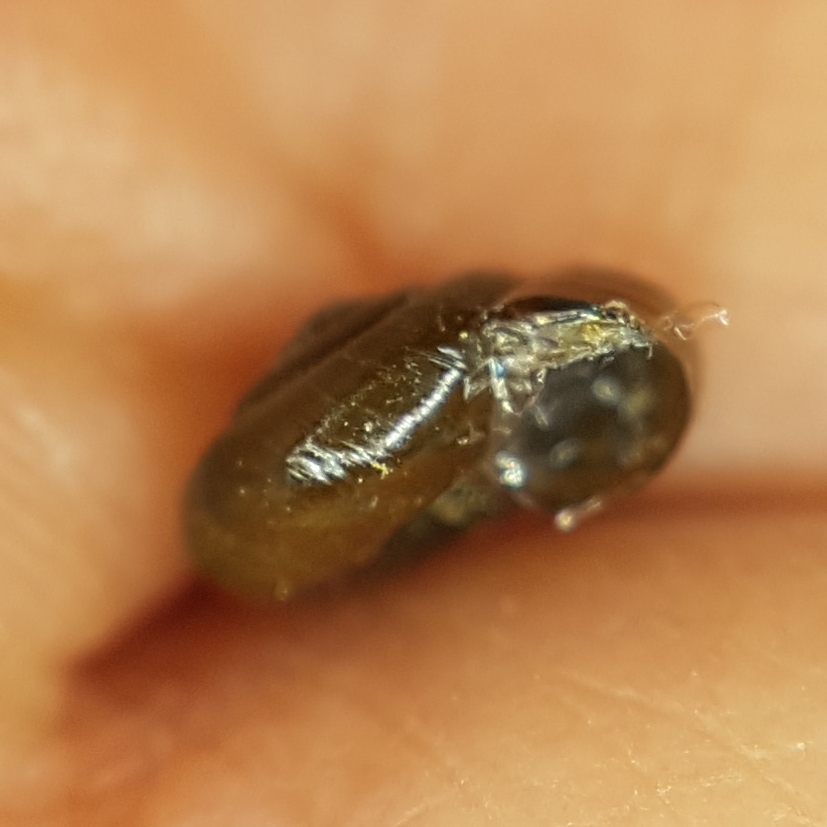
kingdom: Animalia
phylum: Mollusca
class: Gastropoda
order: Stylommatophora
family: Gastrodontidae
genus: Zonitoides
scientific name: Zonitoides nitidus
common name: Shiny glass snail
